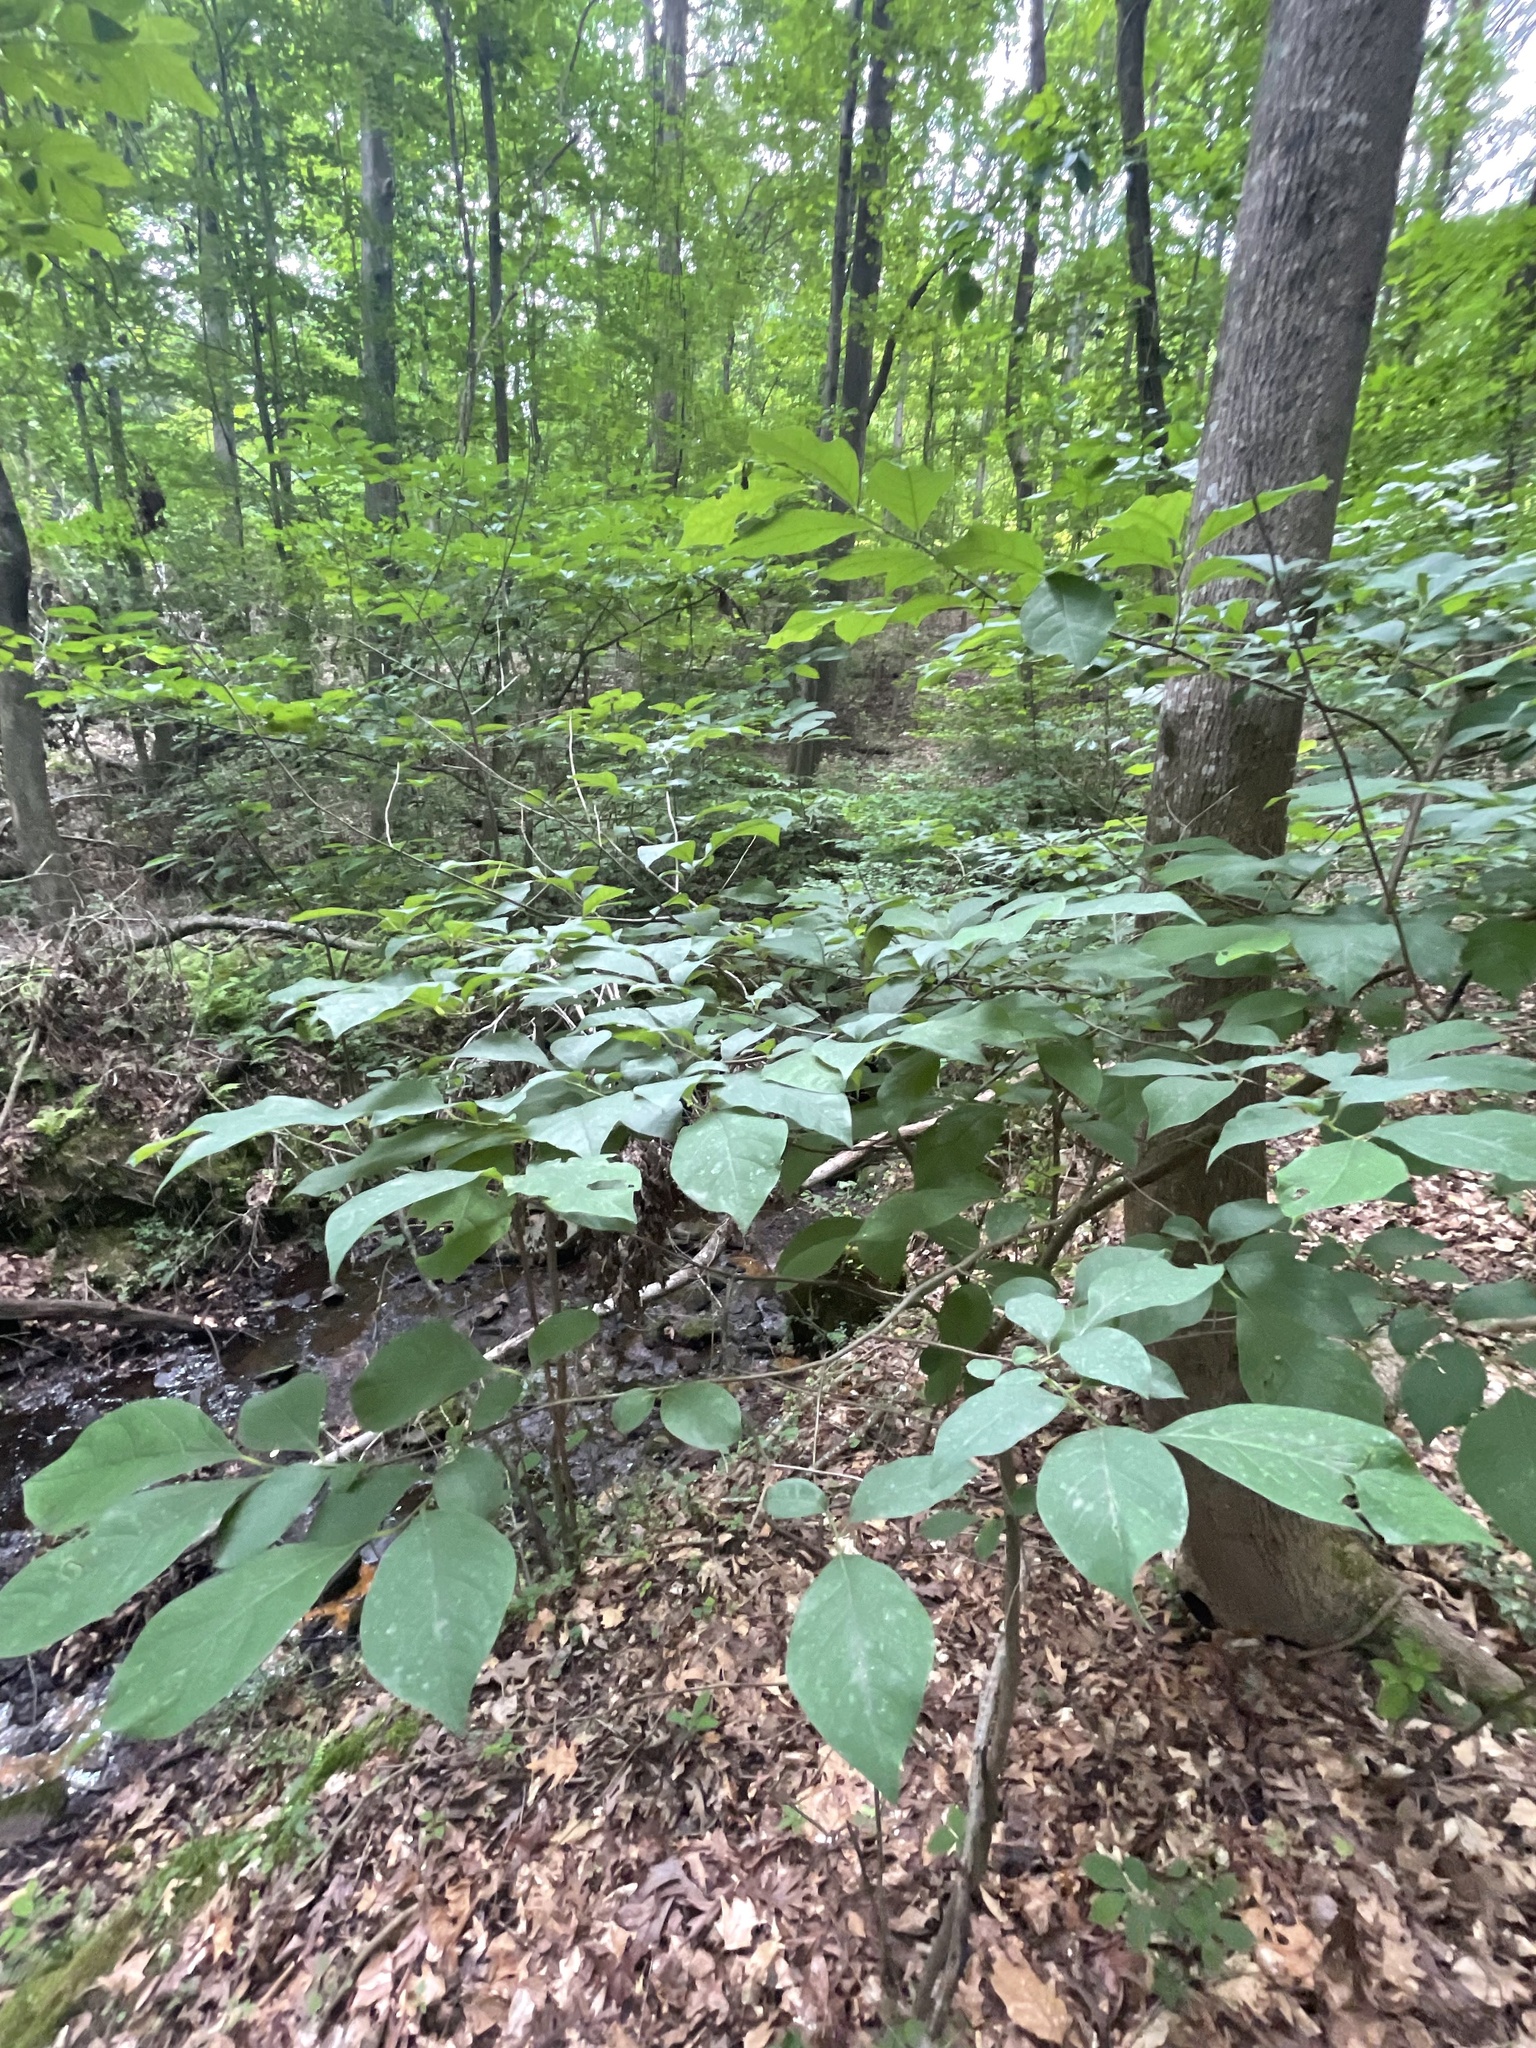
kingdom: Plantae
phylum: Tracheophyta
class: Magnoliopsida
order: Laurales
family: Lauraceae
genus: Lindera
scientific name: Lindera benzoin
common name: Spicebush
